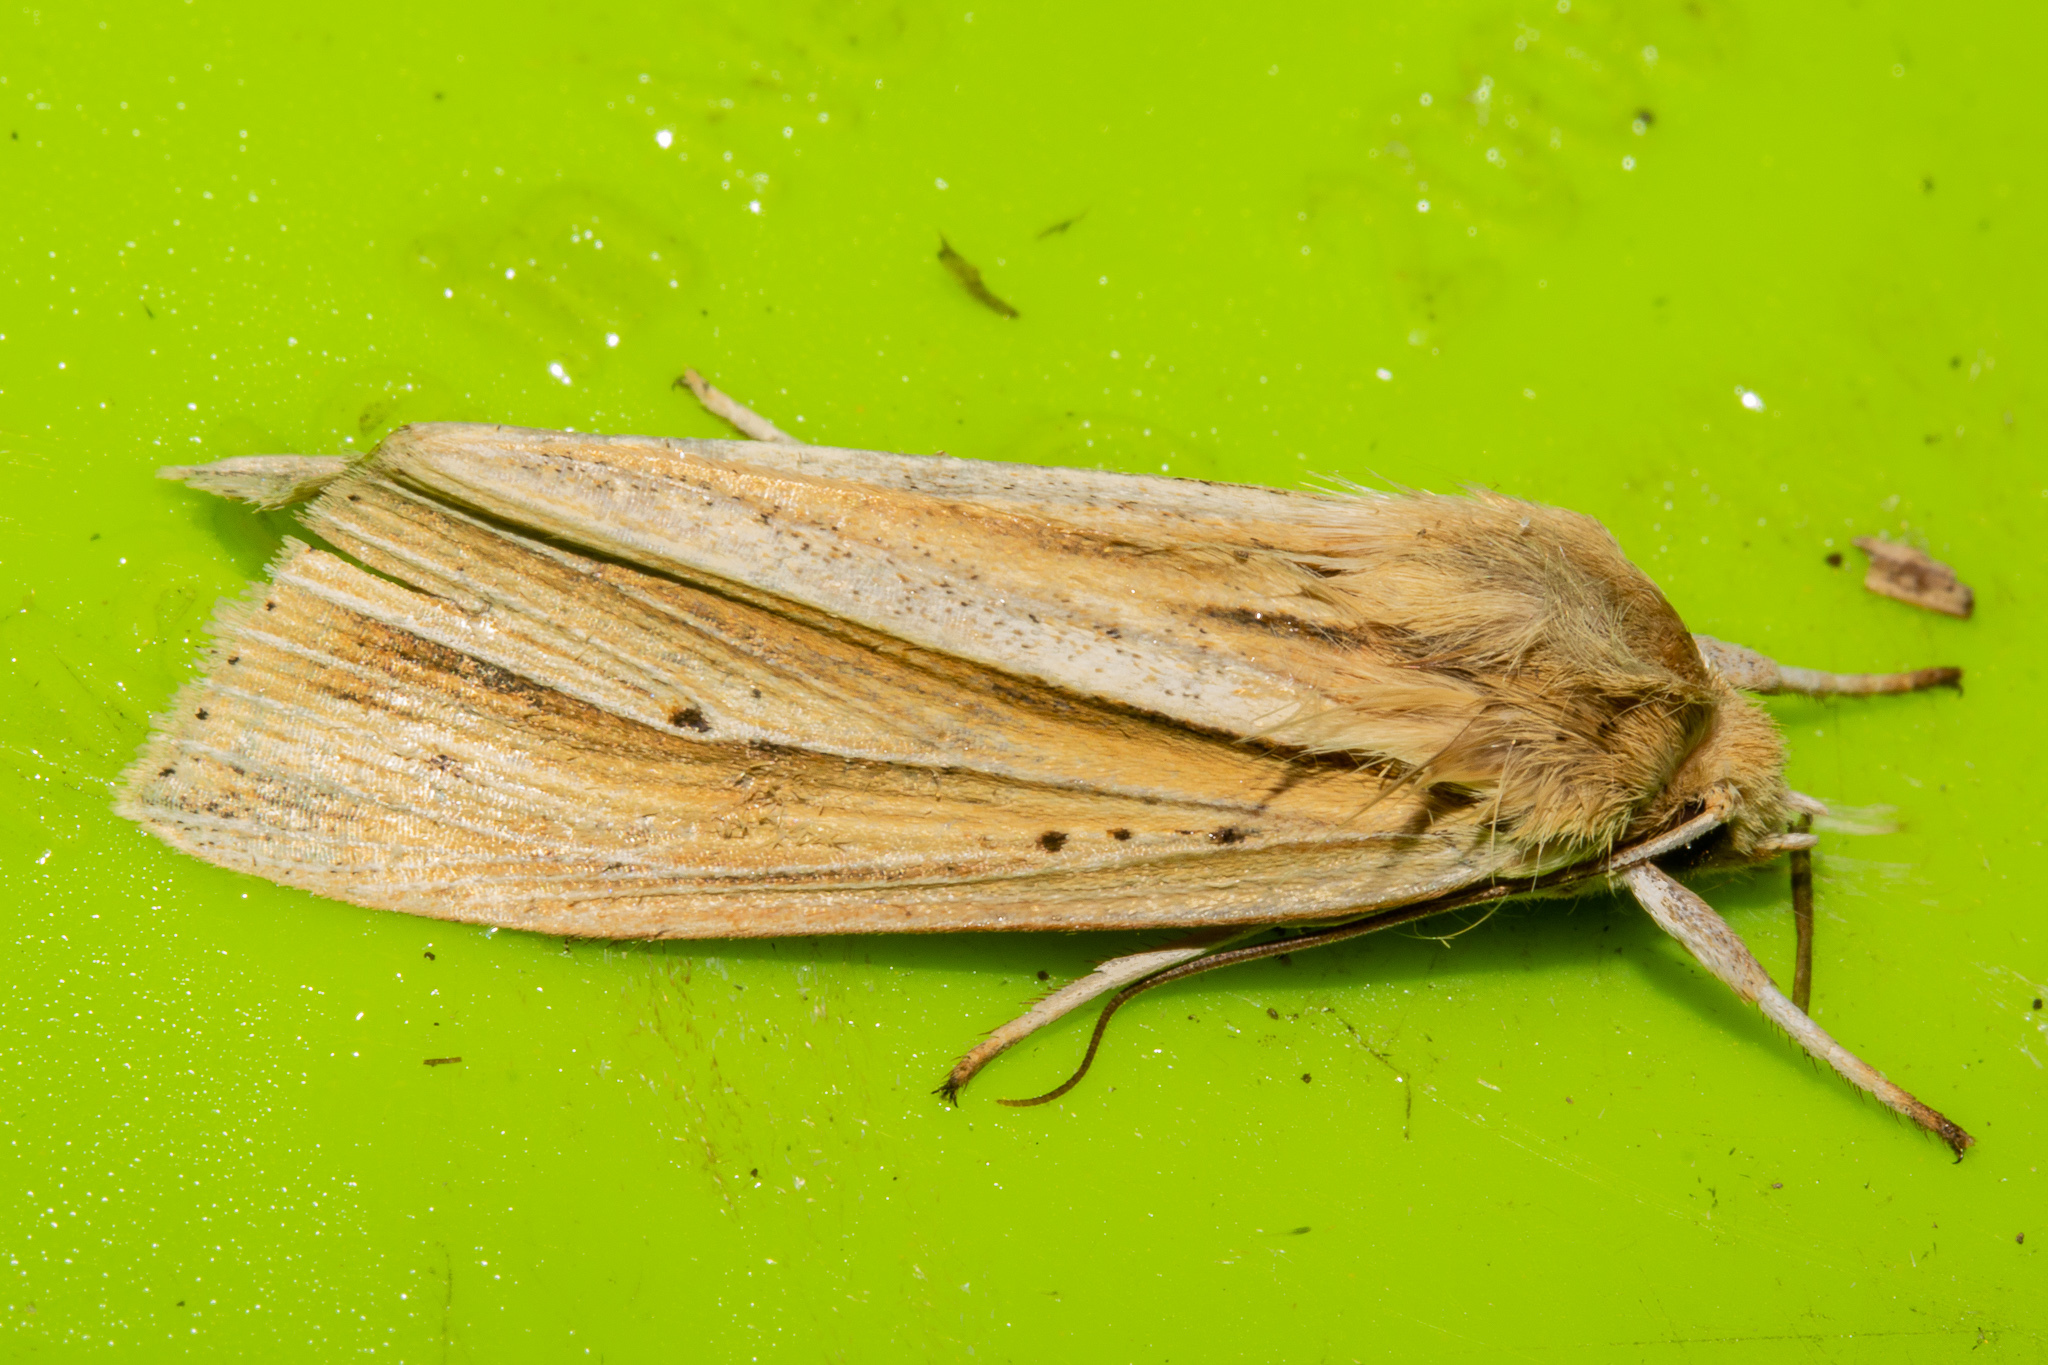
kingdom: Animalia
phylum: Arthropoda
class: Insecta
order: Lepidoptera
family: Noctuidae
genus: Ichneutica
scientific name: Ichneutica sulcana
